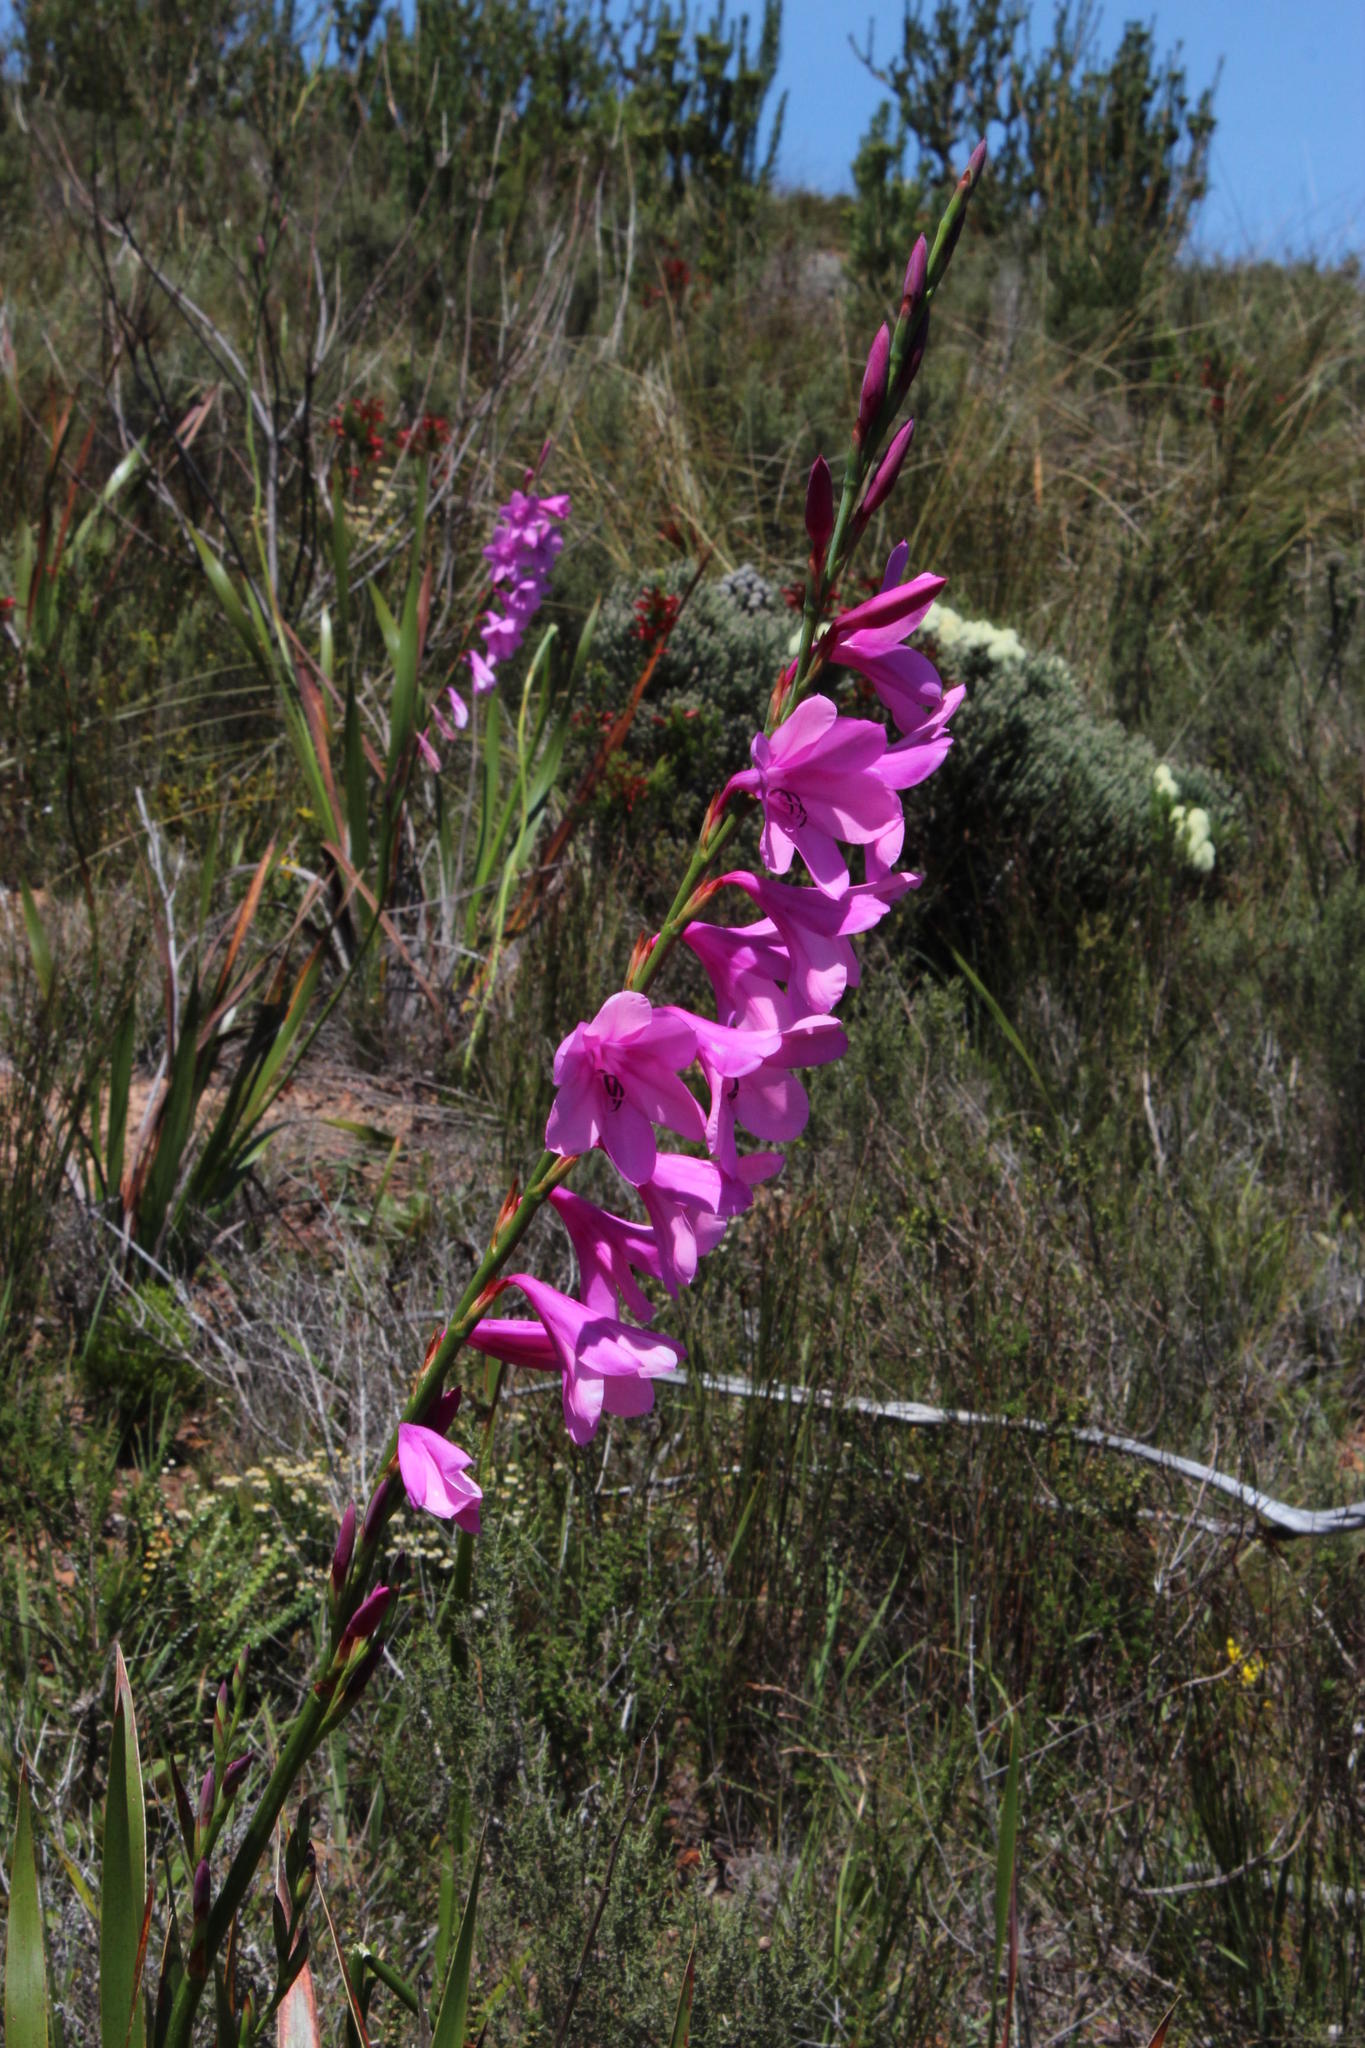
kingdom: Plantae
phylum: Tracheophyta
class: Liliopsida
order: Asparagales
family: Iridaceae
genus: Watsonia
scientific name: Watsonia borbonica
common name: Bugle-lily
